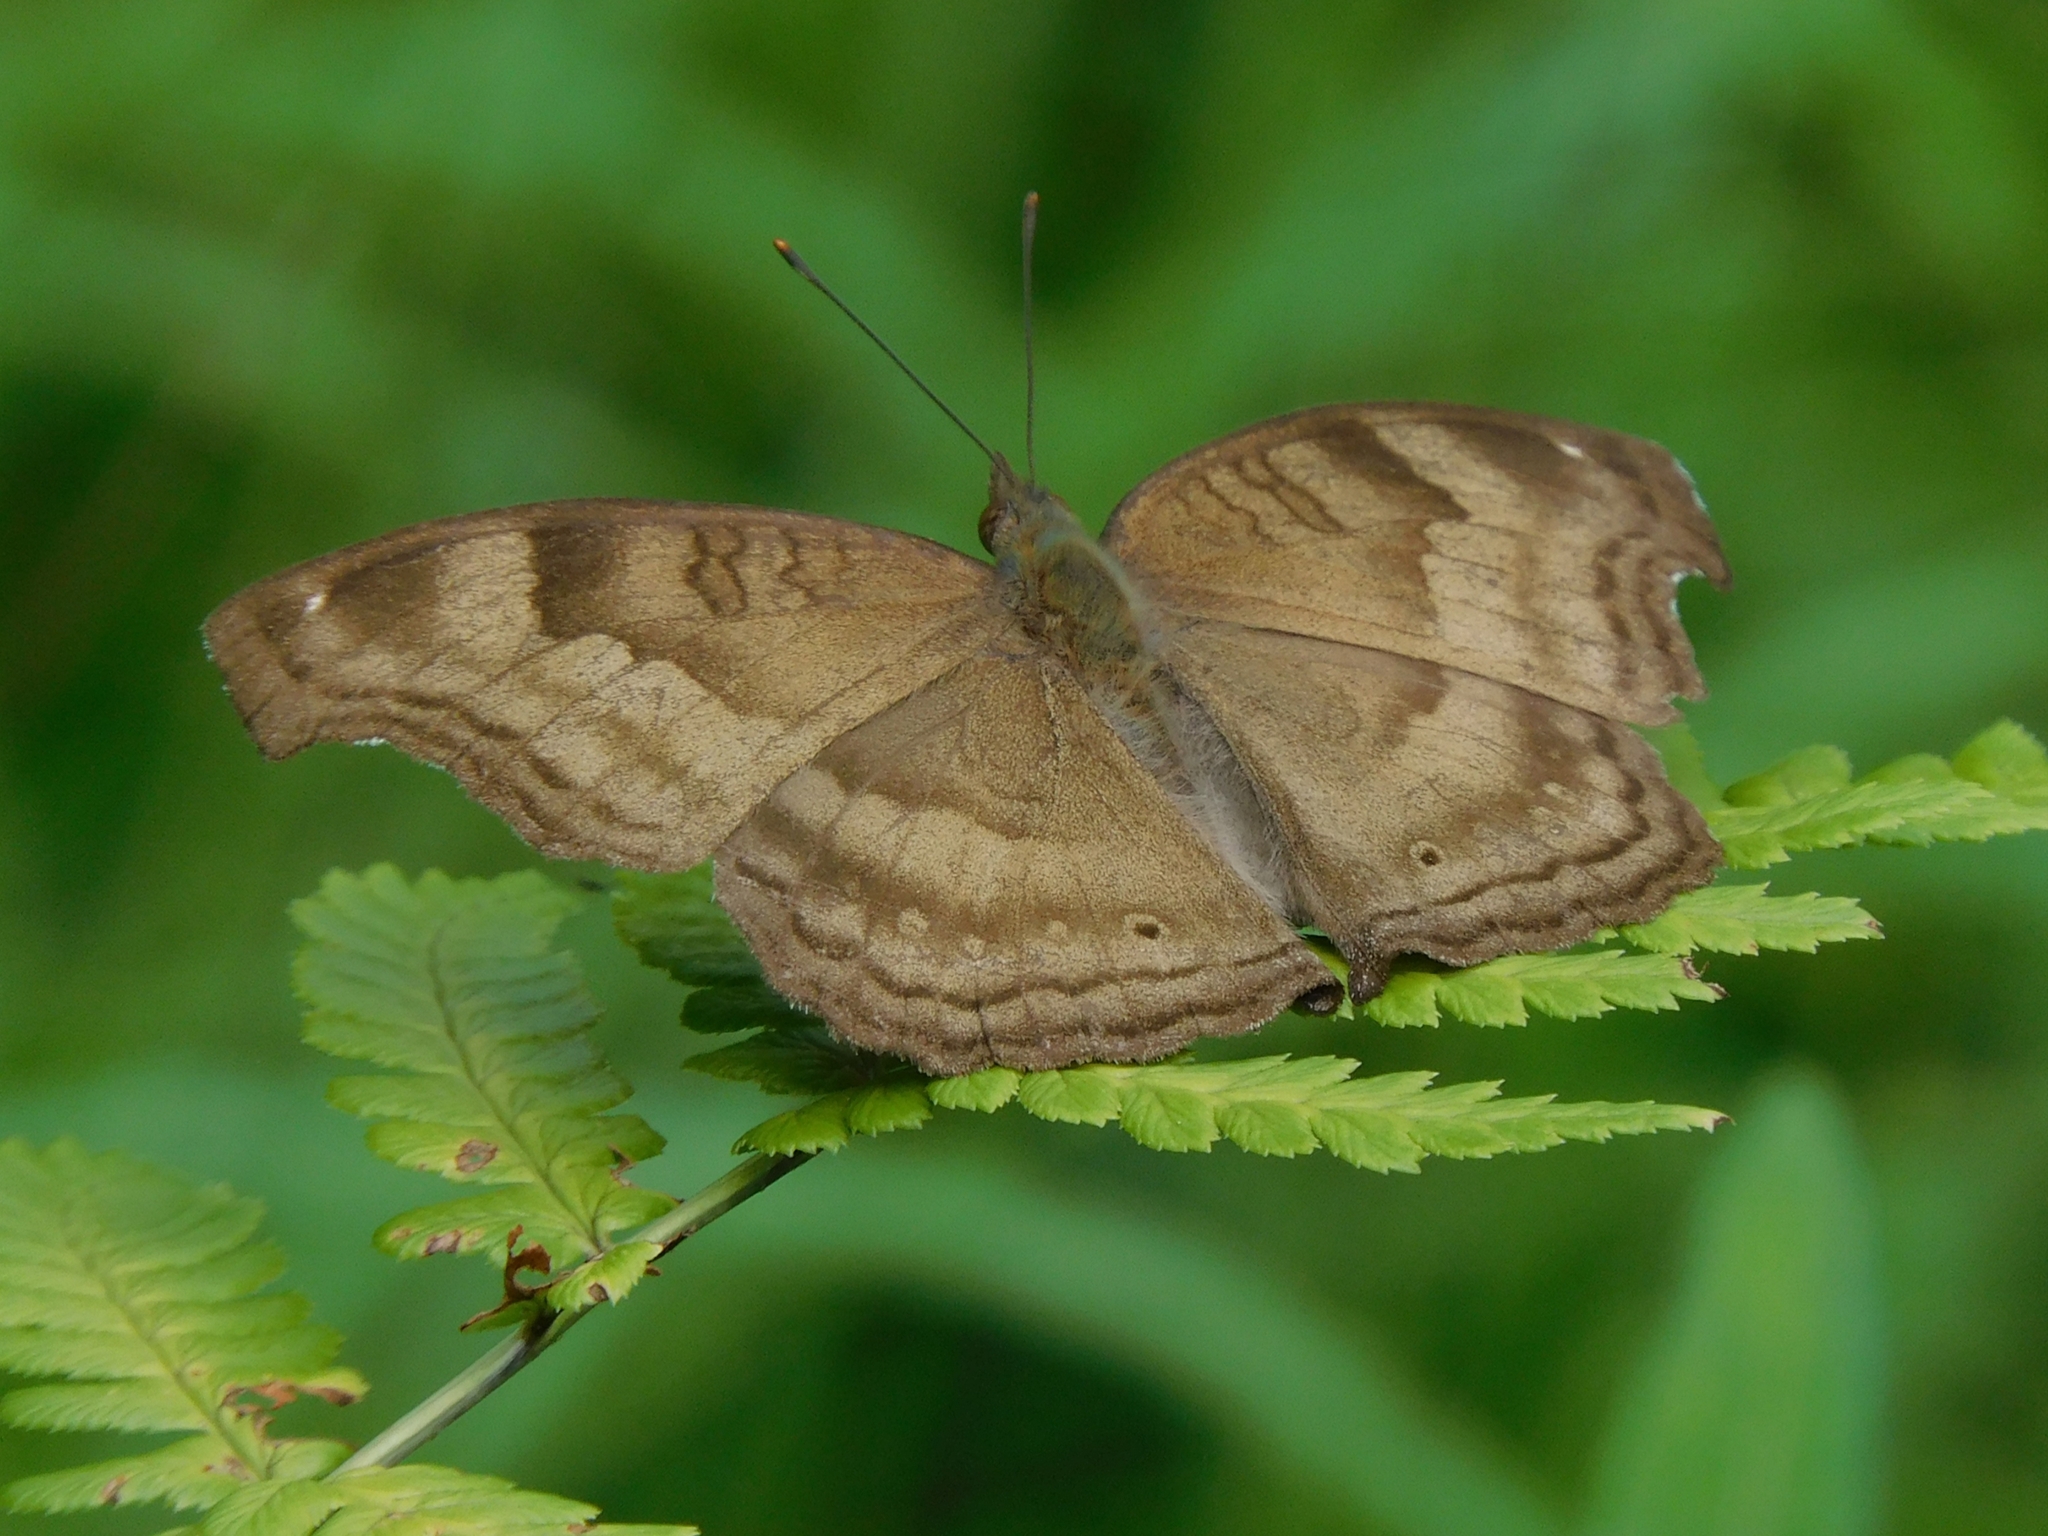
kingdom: Animalia
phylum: Arthropoda
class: Insecta
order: Lepidoptera
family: Nymphalidae
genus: Junonia
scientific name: Junonia iphita
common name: Chocolate pansy
